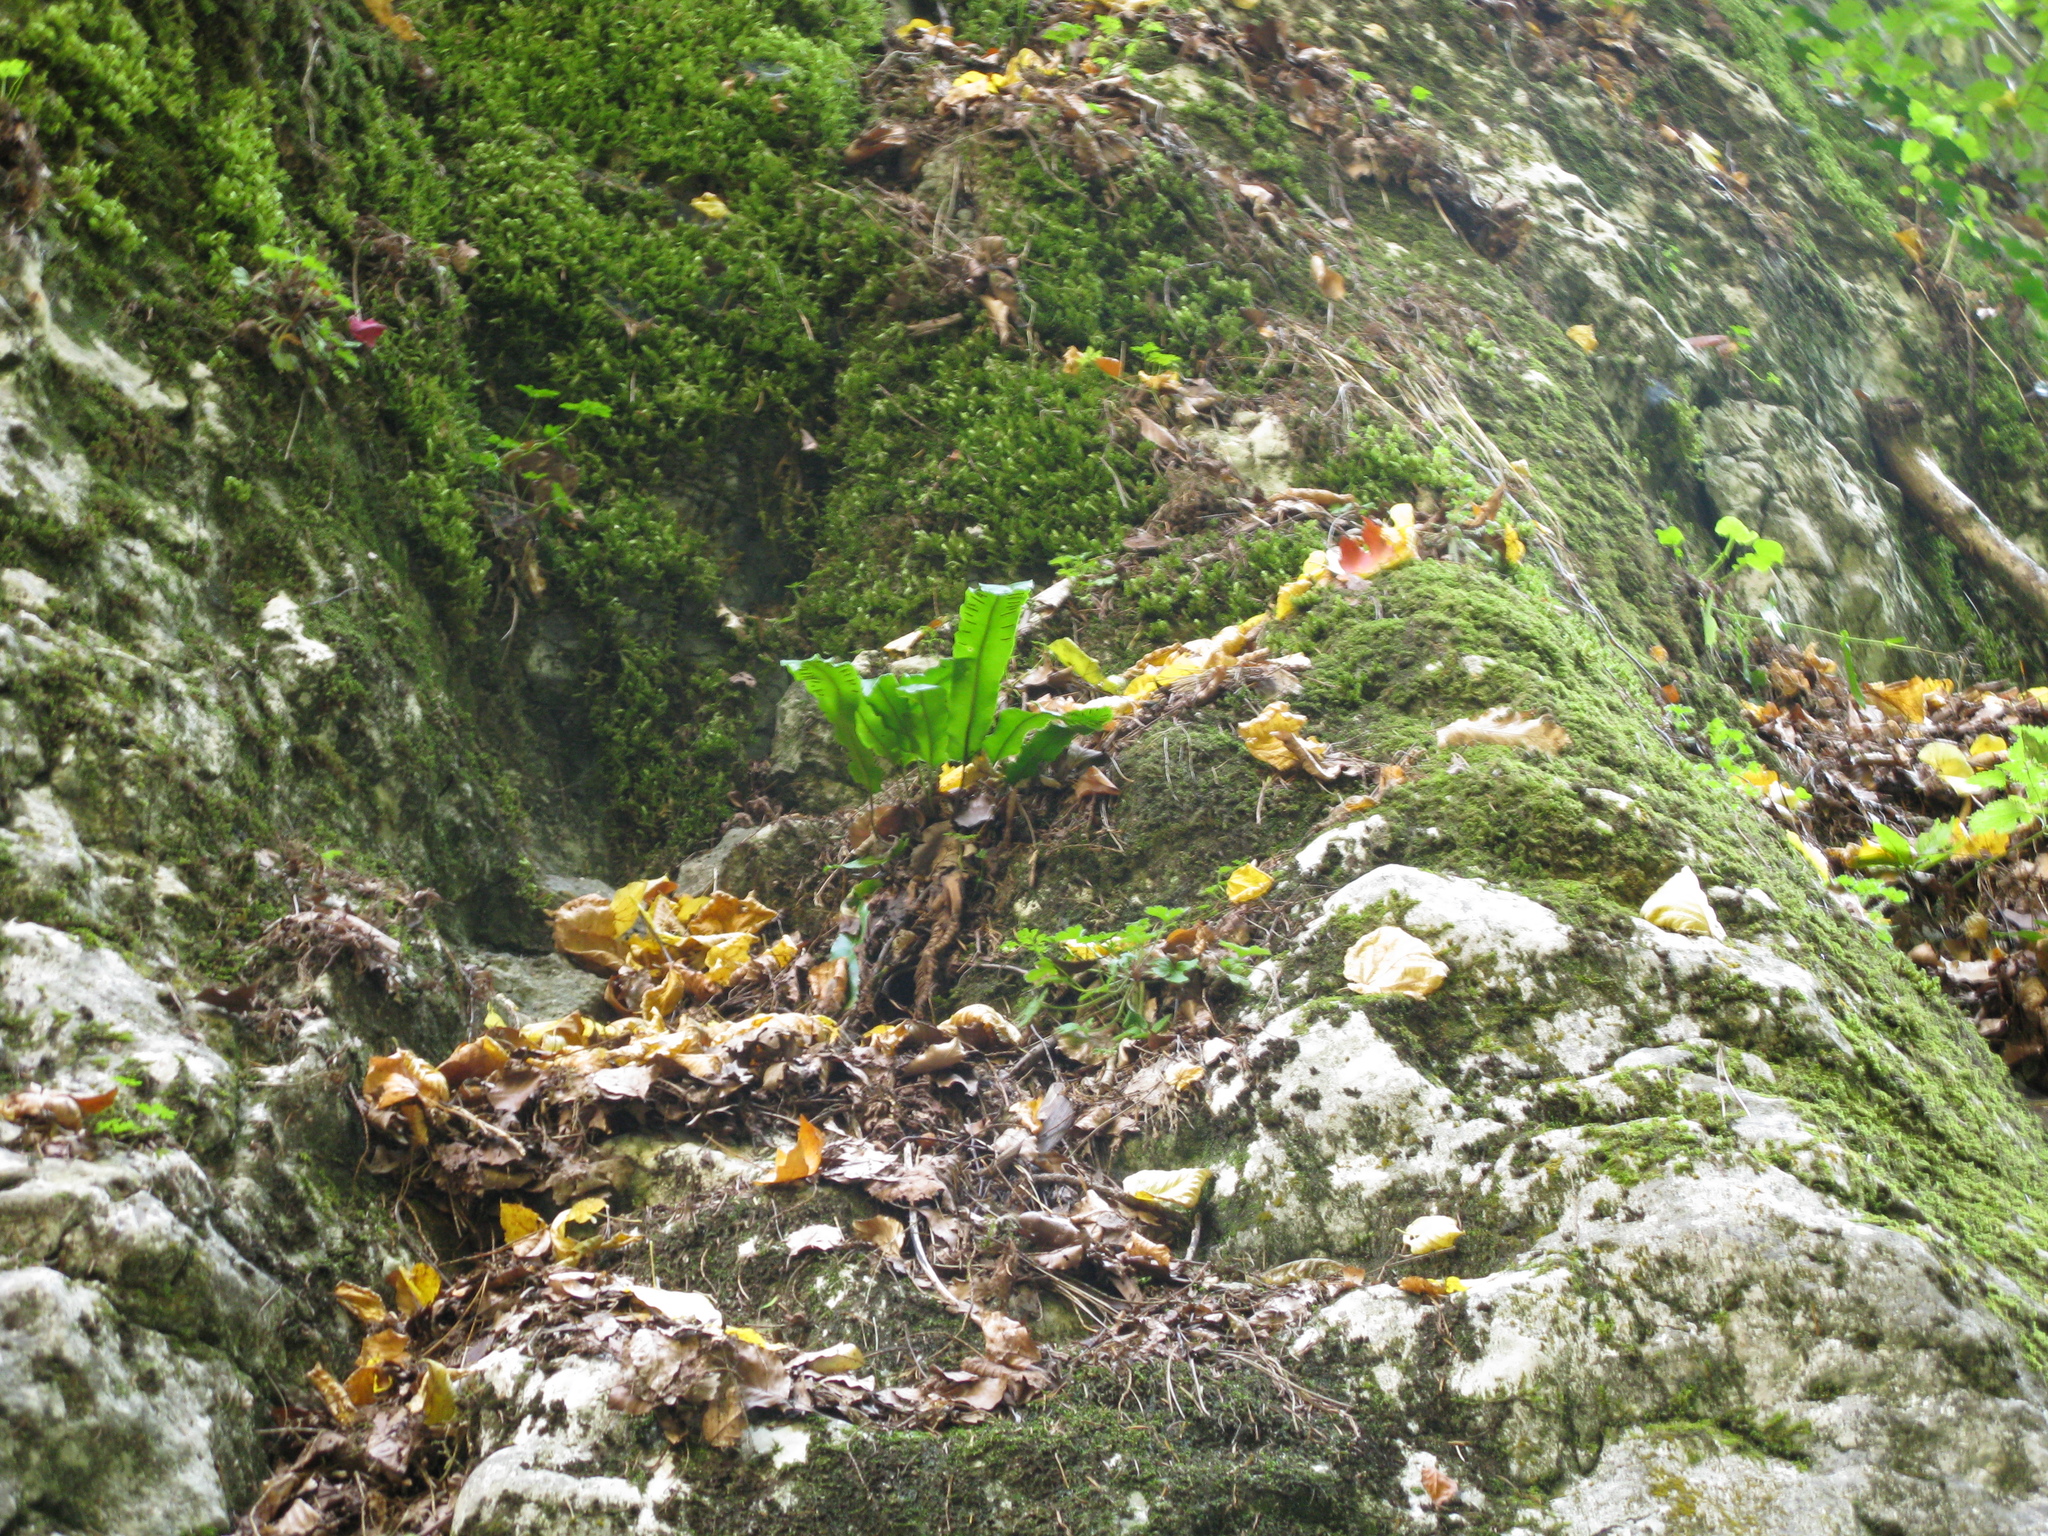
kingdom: Plantae
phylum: Tracheophyta
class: Polypodiopsida
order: Polypodiales
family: Aspleniaceae
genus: Asplenium
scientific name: Asplenium scolopendrium
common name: Hart's-tongue fern
